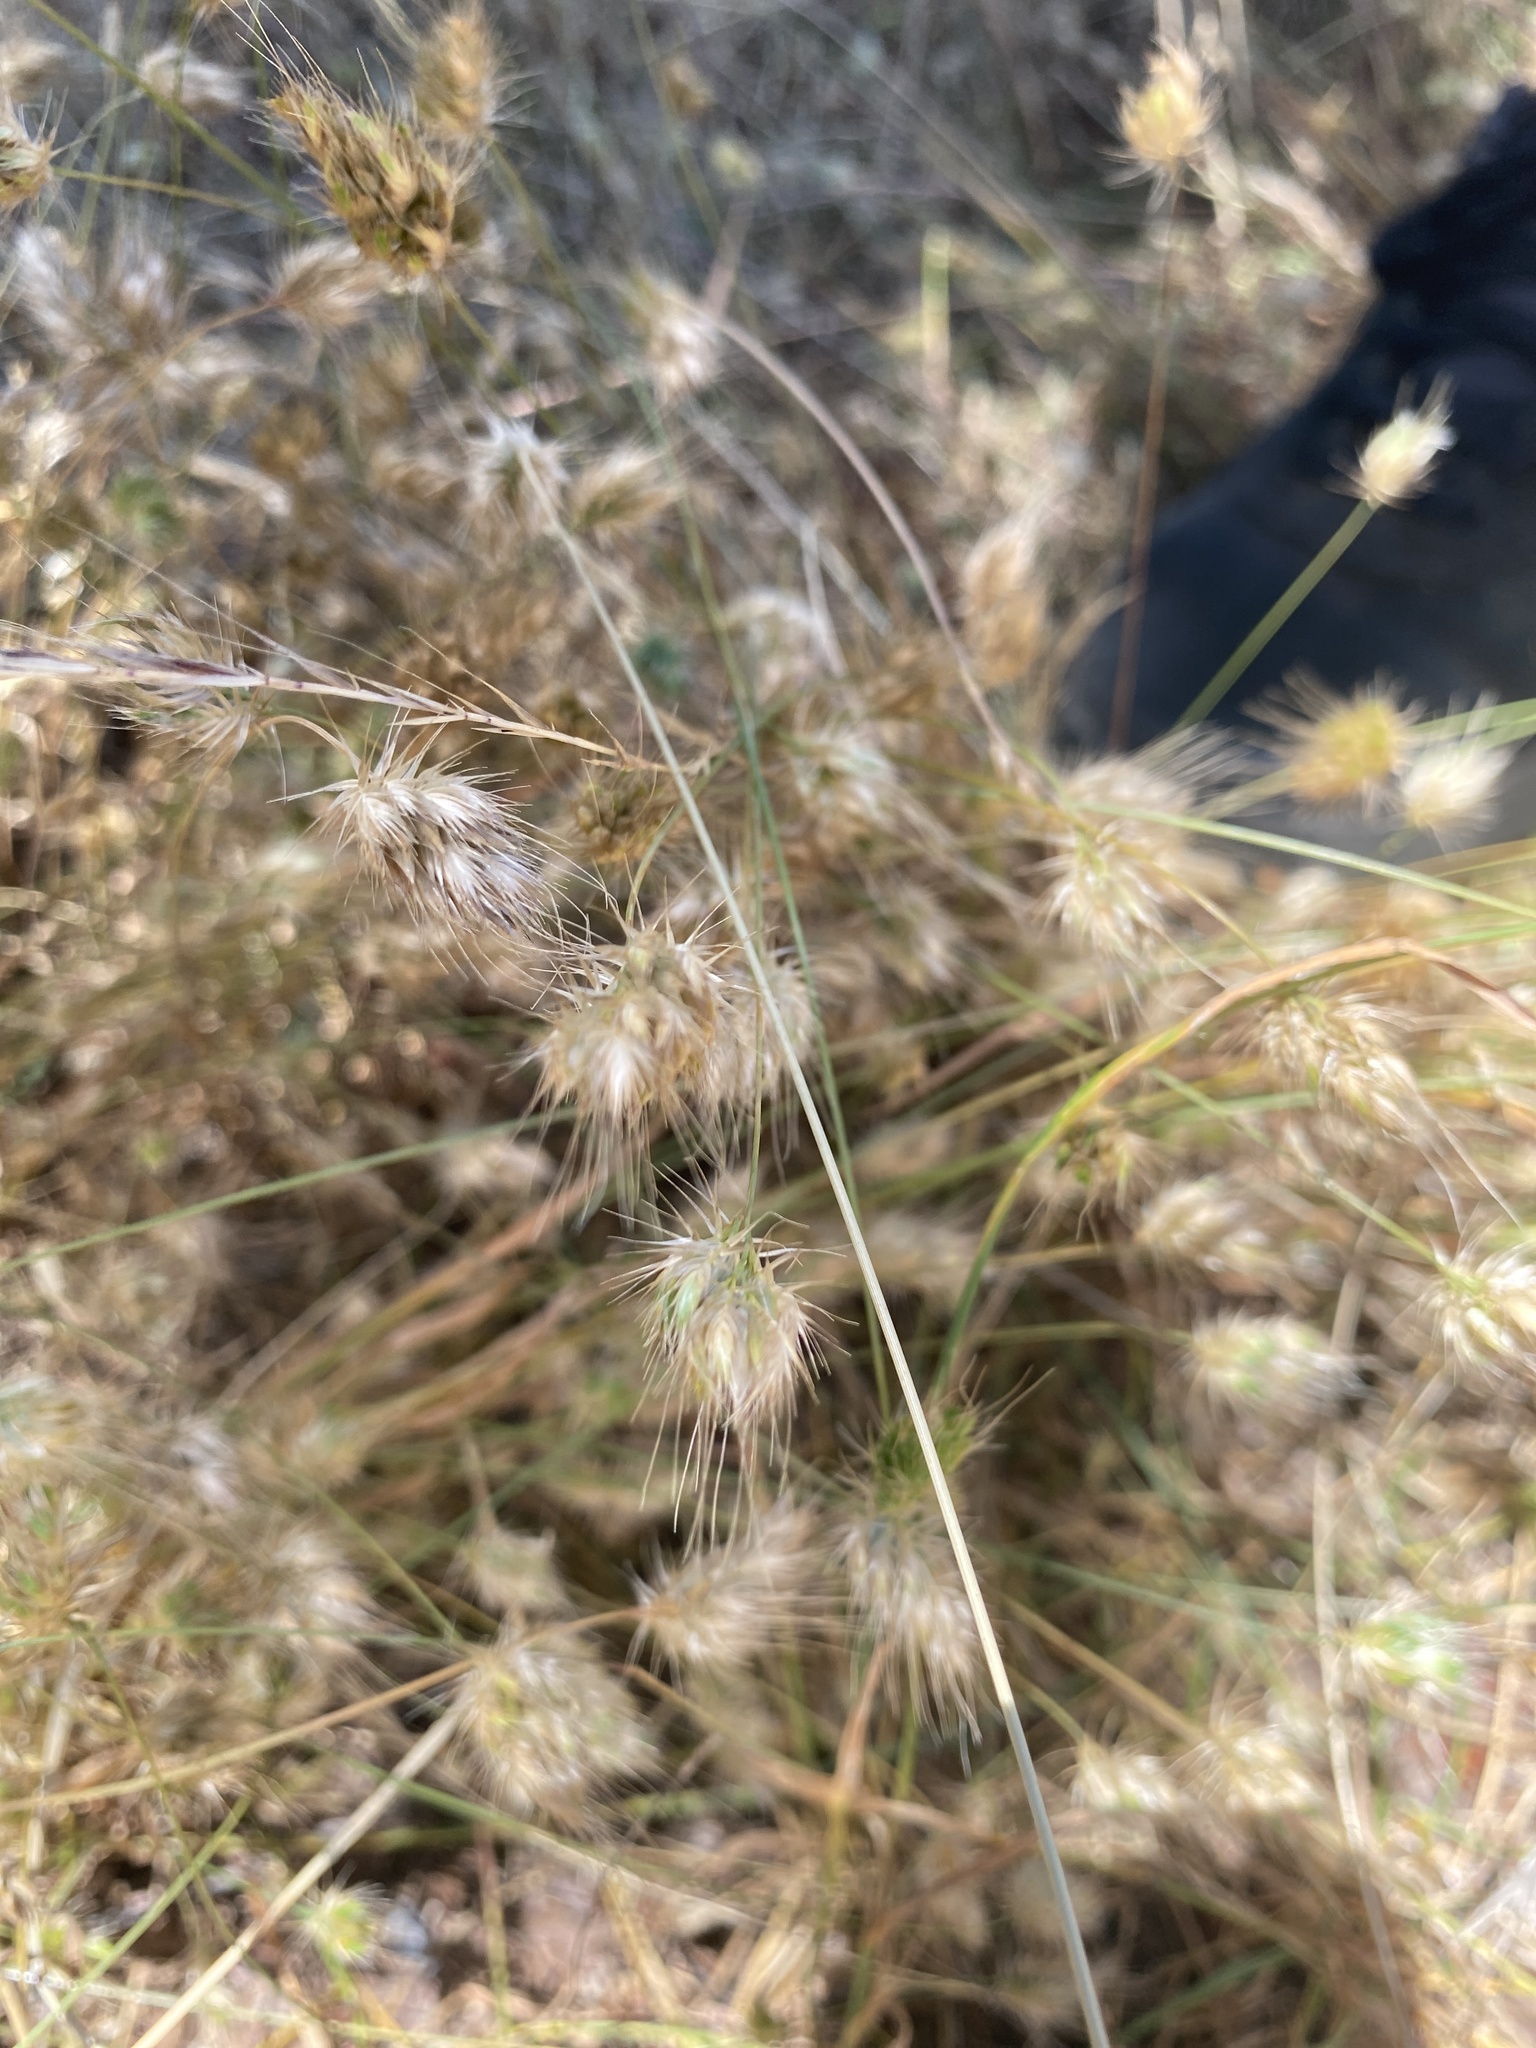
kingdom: Plantae
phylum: Tracheophyta
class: Liliopsida
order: Poales
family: Poaceae
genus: Cynosurus
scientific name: Cynosurus echinatus
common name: Rough dog's-tail
